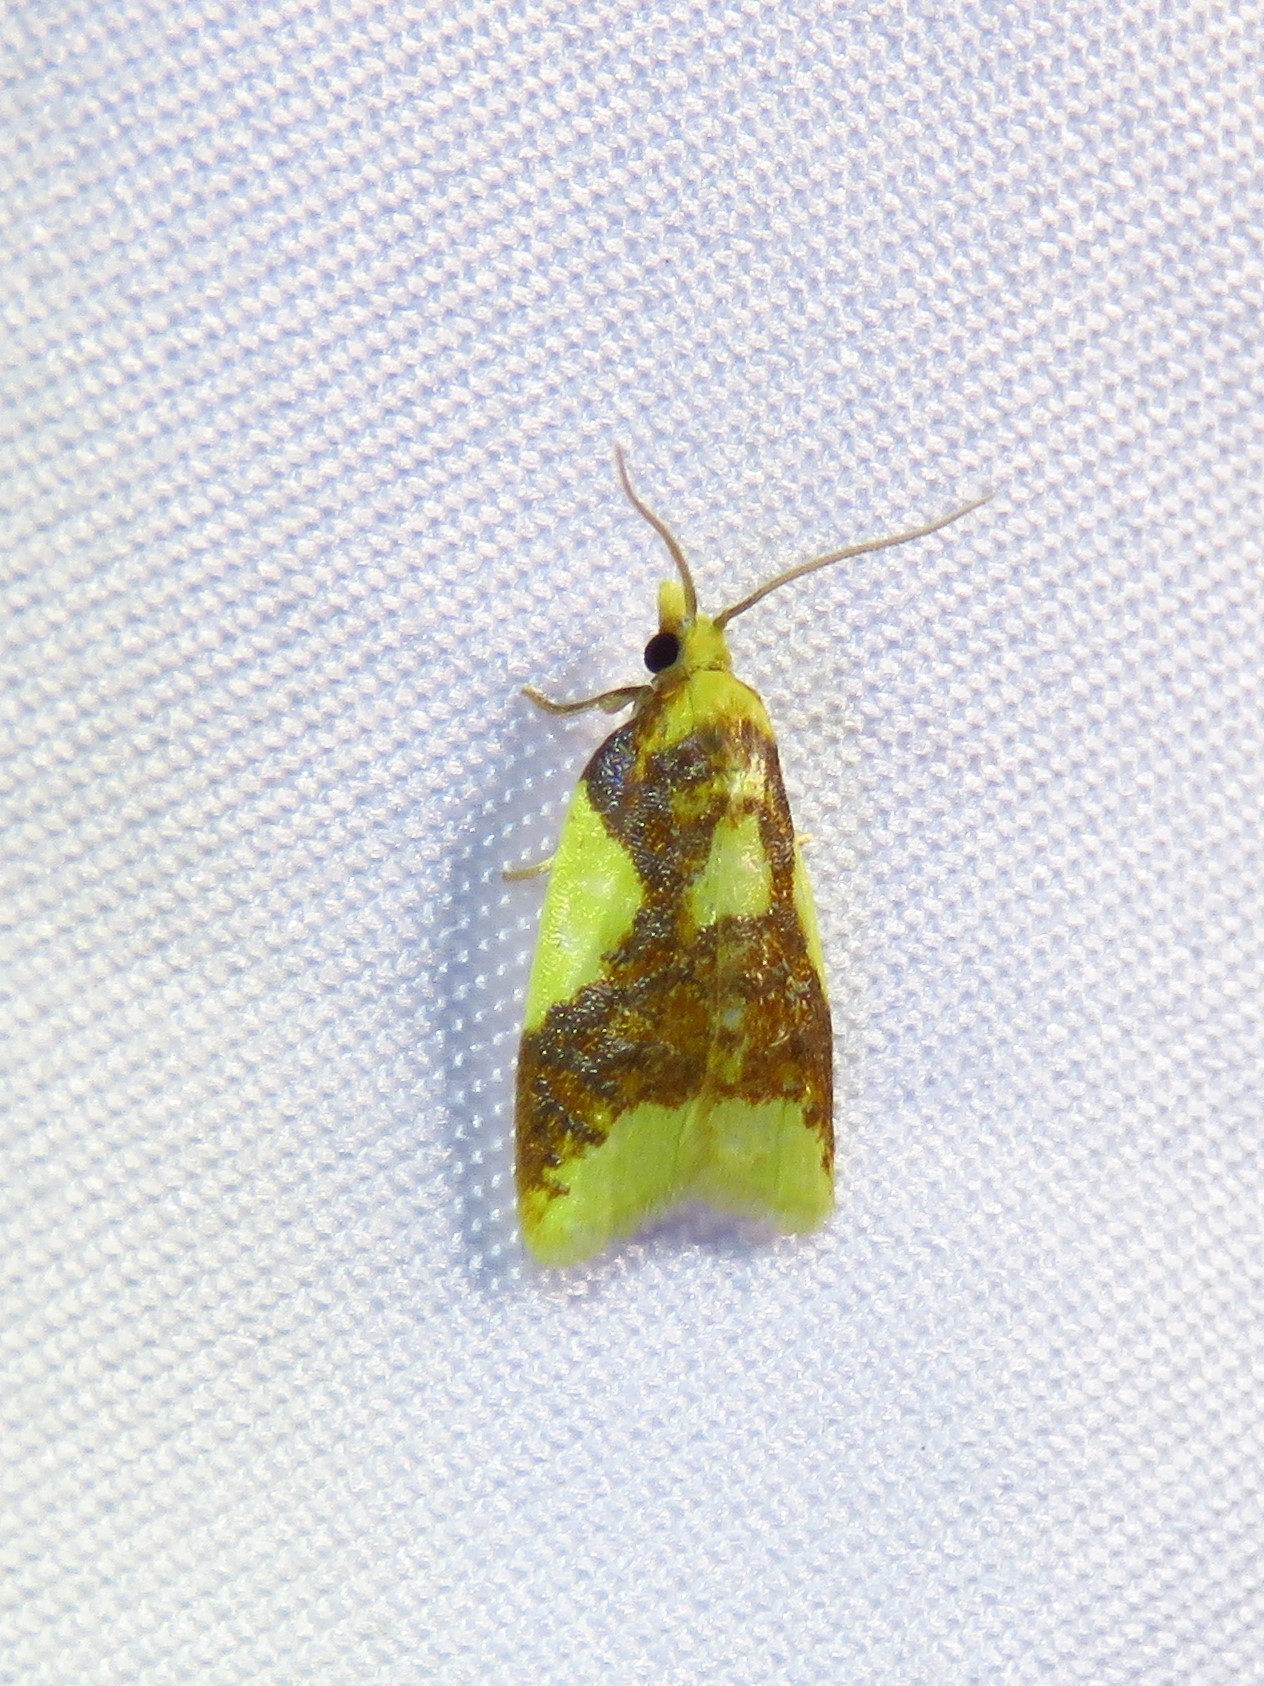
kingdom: Animalia
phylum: Arthropoda
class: Insecta
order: Lepidoptera
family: Tortricidae
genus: Sparganothis
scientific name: Sparganothis pulcherrimana
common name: Beautiful sparganothis
